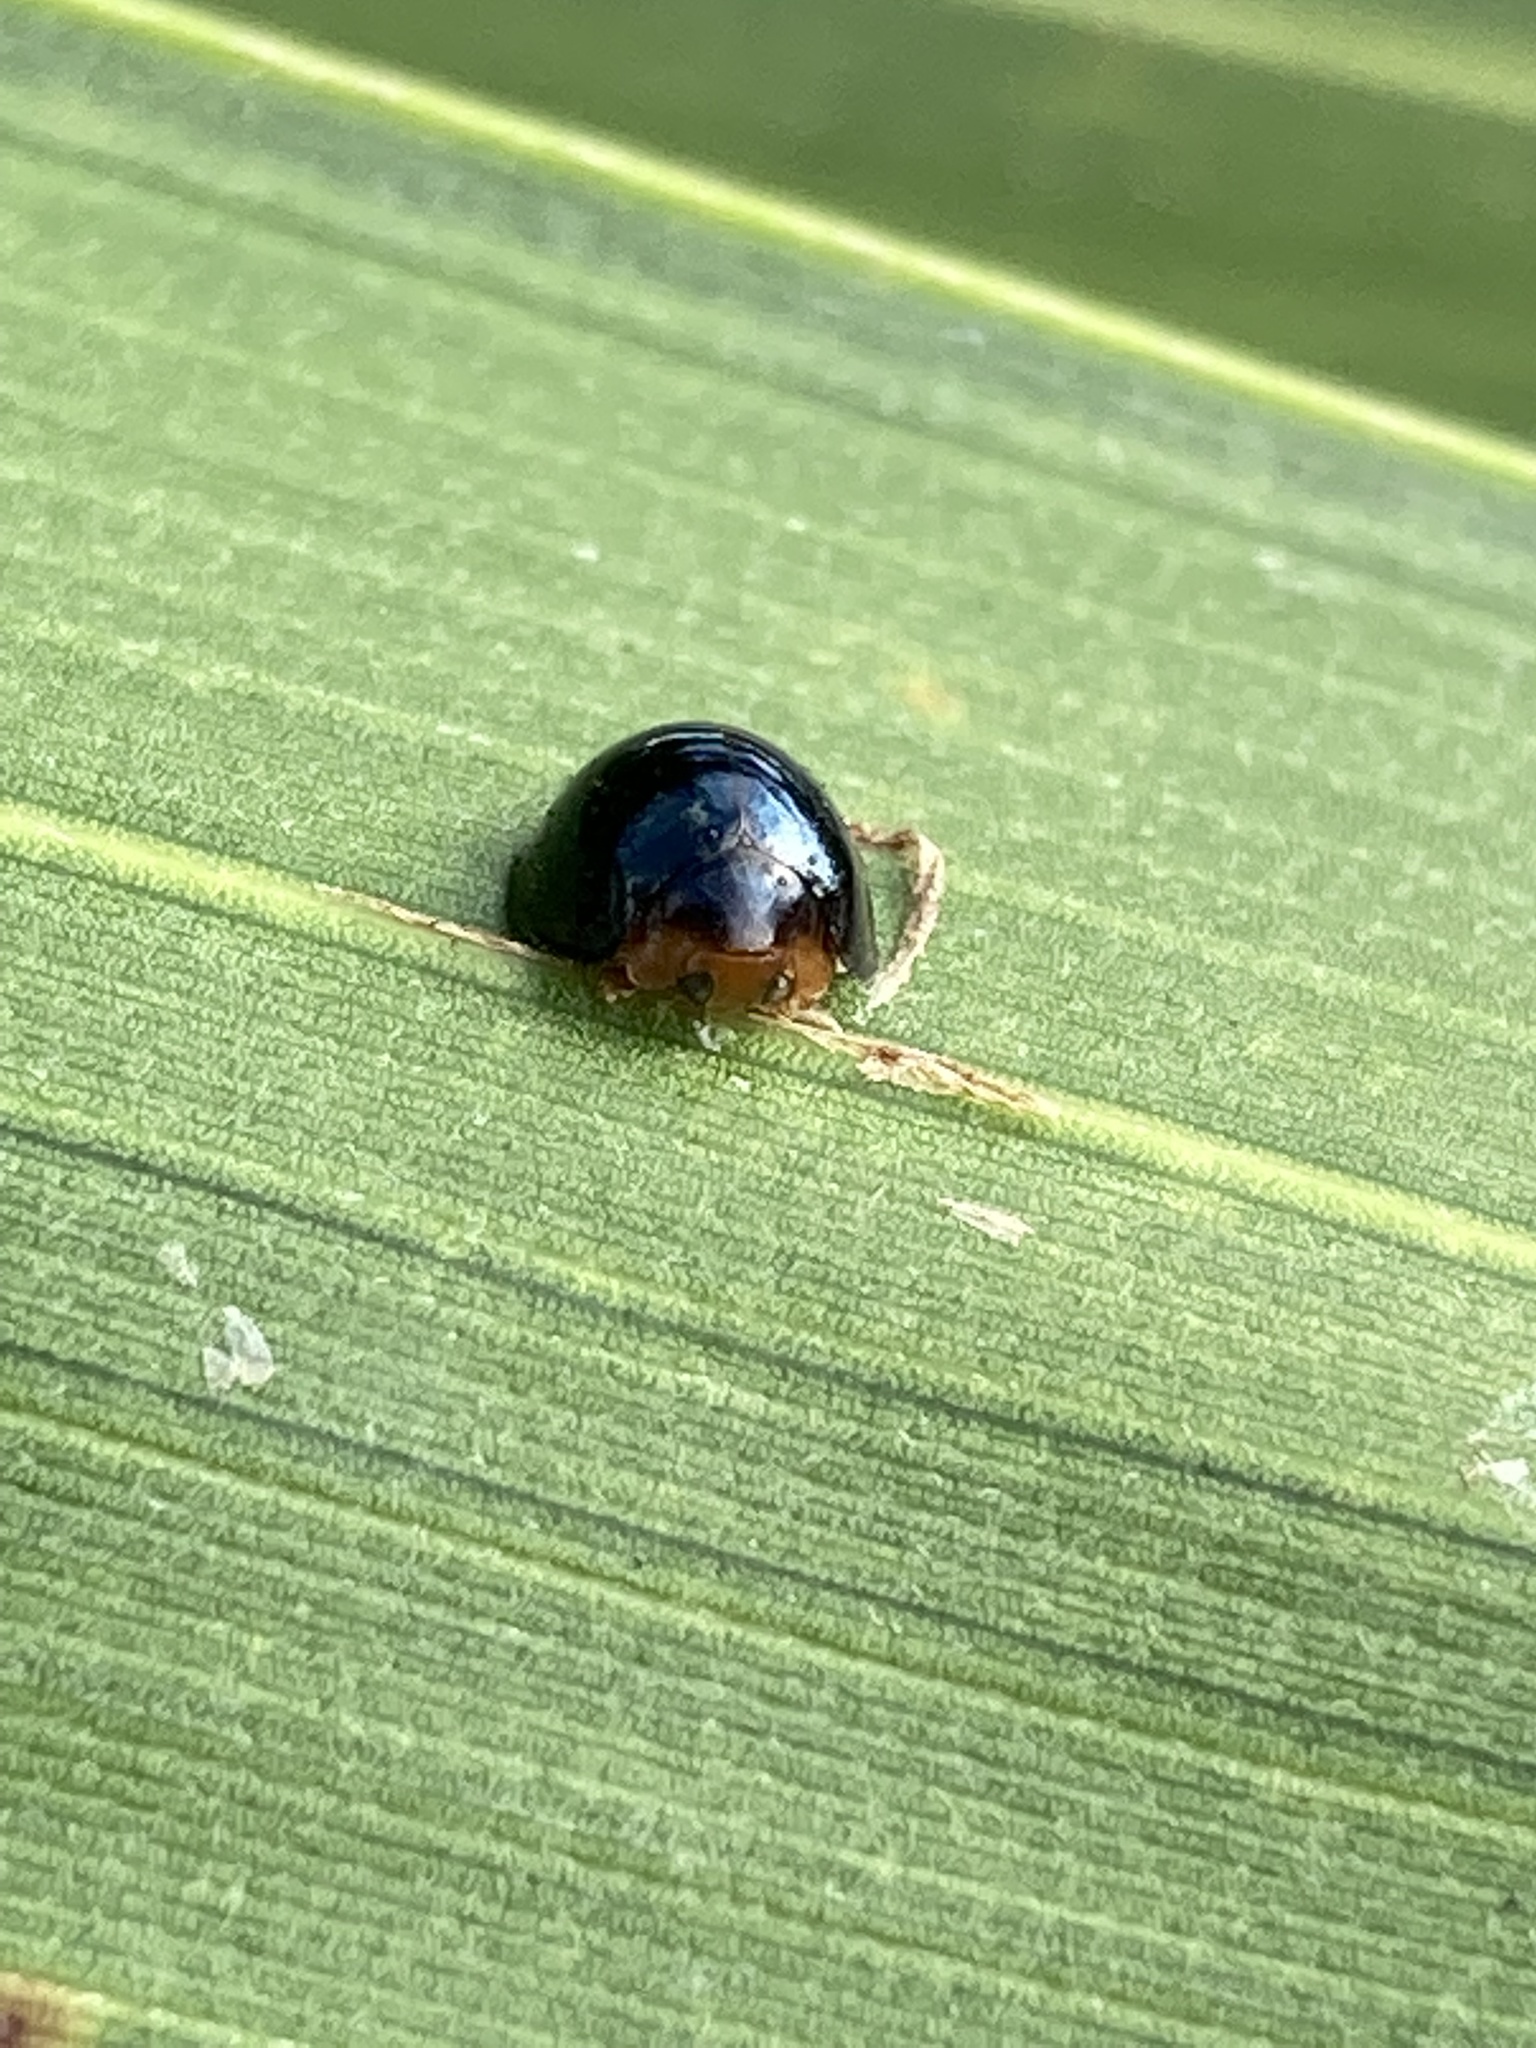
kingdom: Animalia
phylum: Arthropoda
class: Insecta
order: Coleoptera
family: Coccinellidae
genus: Chilocorus
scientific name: Chilocorus nigritus
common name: Ladybird beetle
